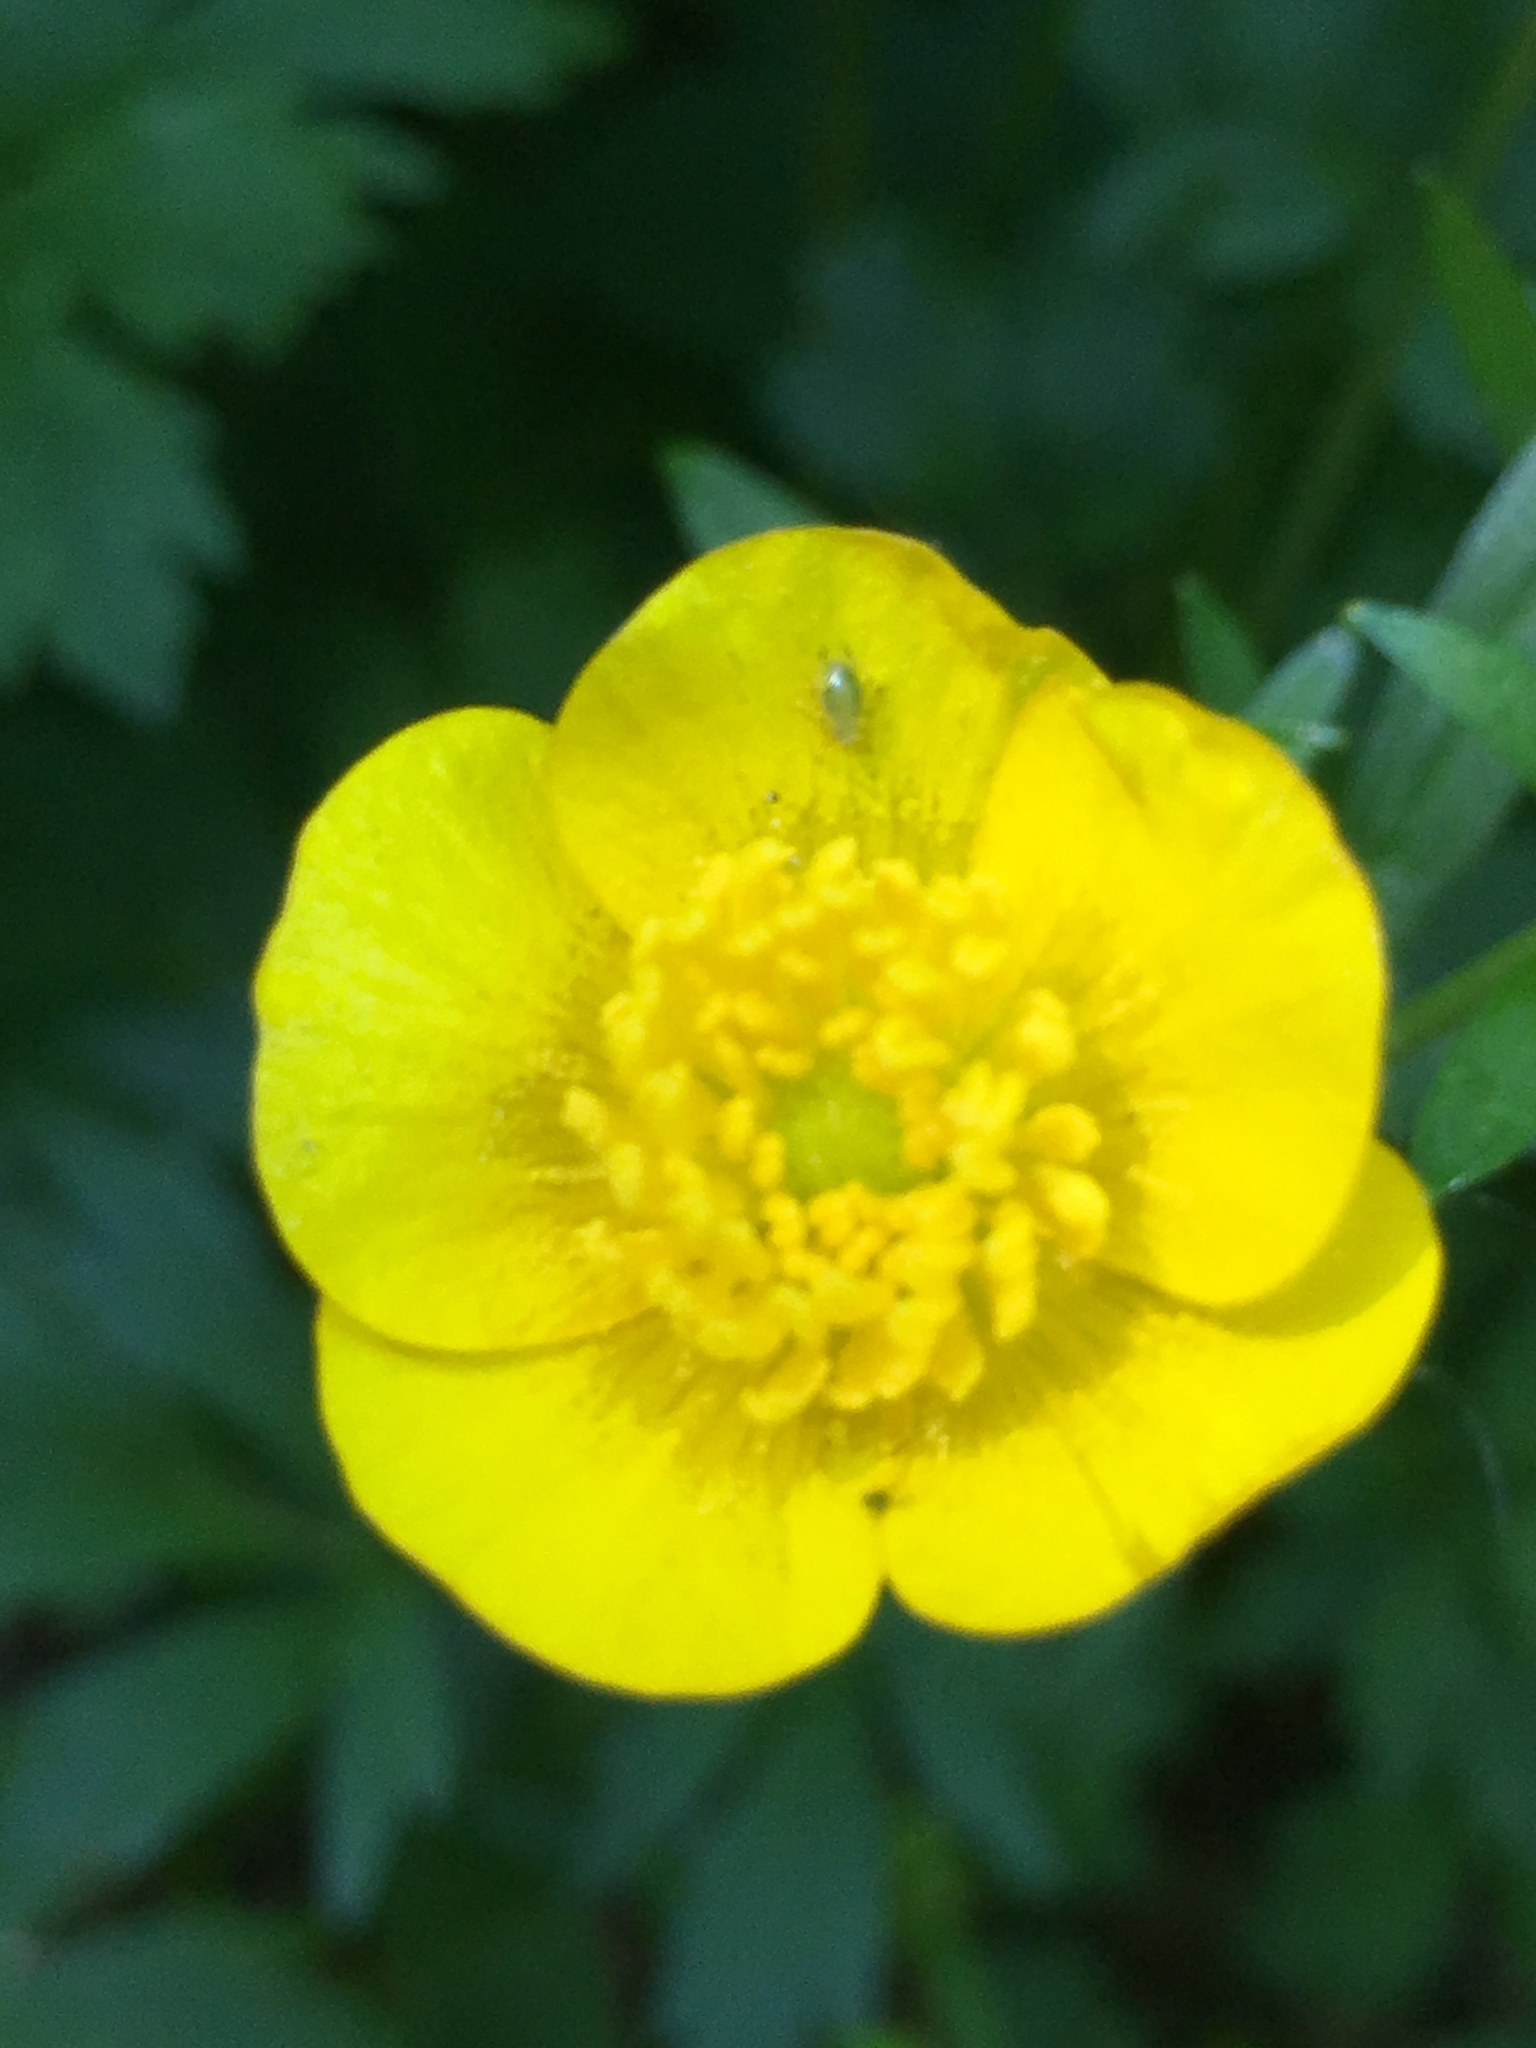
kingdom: Plantae
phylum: Tracheophyta
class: Magnoliopsida
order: Ranunculales
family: Ranunculaceae
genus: Ranunculus
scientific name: Ranunculus
